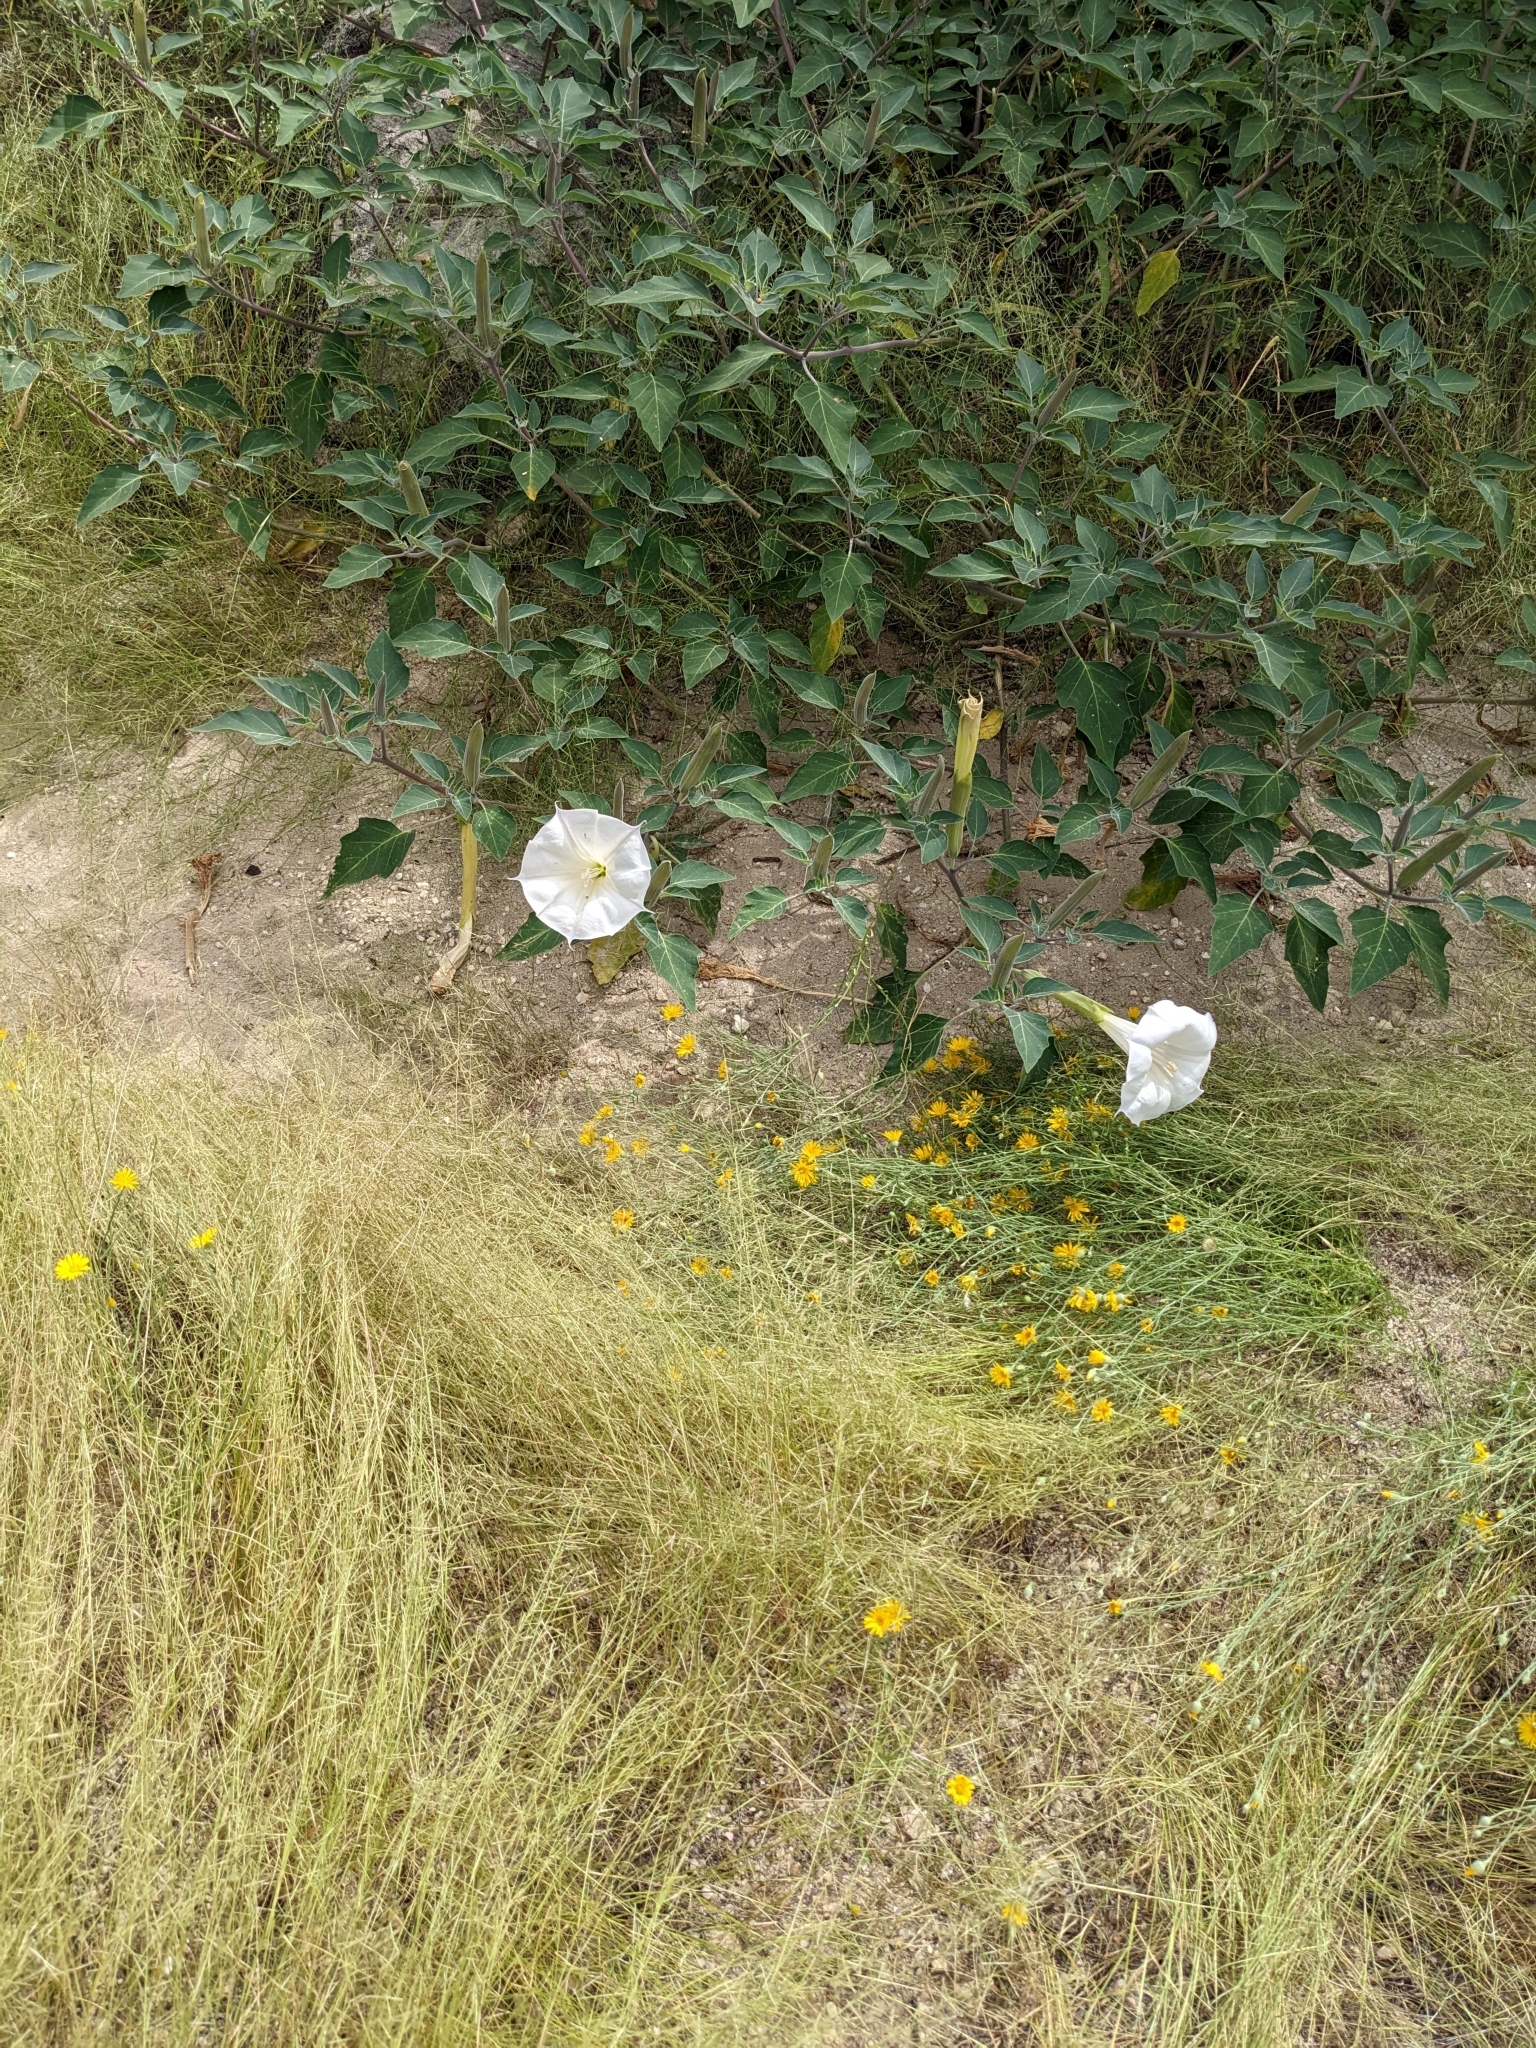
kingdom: Plantae
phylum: Tracheophyta
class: Magnoliopsida
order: Solanales
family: Solanaceae
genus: Datura
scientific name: Datura wrightii
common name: Sacred thorn-apple
